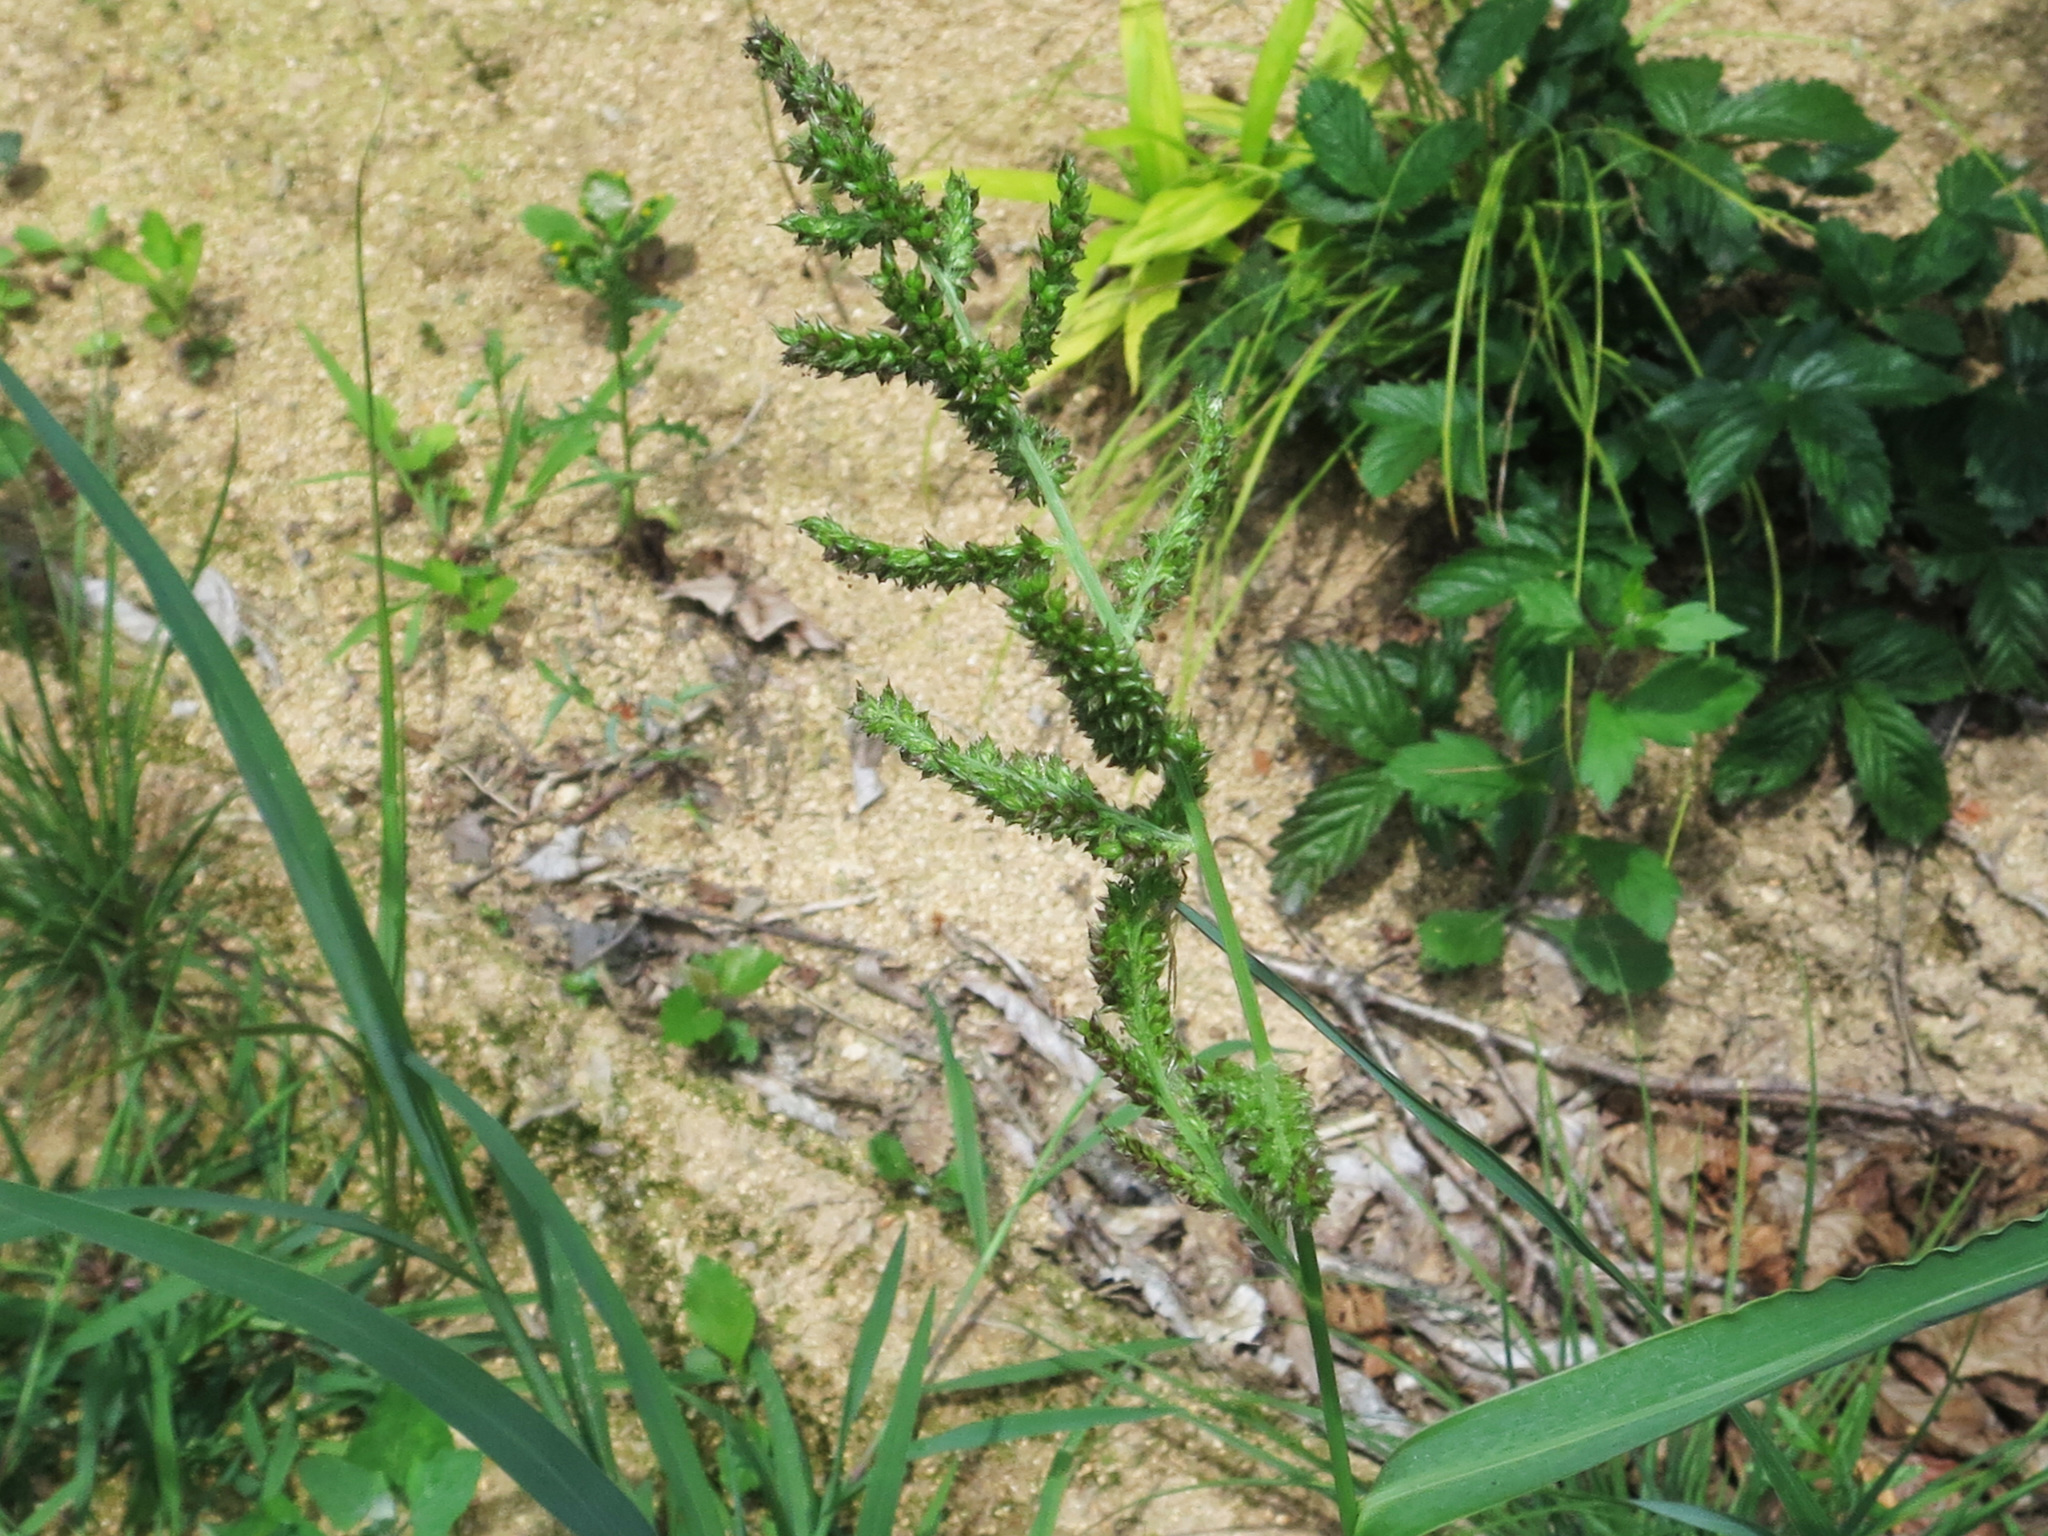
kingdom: Plantae
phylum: Tracheophyta
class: Liliopsida
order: Poales
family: Poaceae
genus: Echinochloa
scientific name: Echinochloa crus-galli
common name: Cockspur
